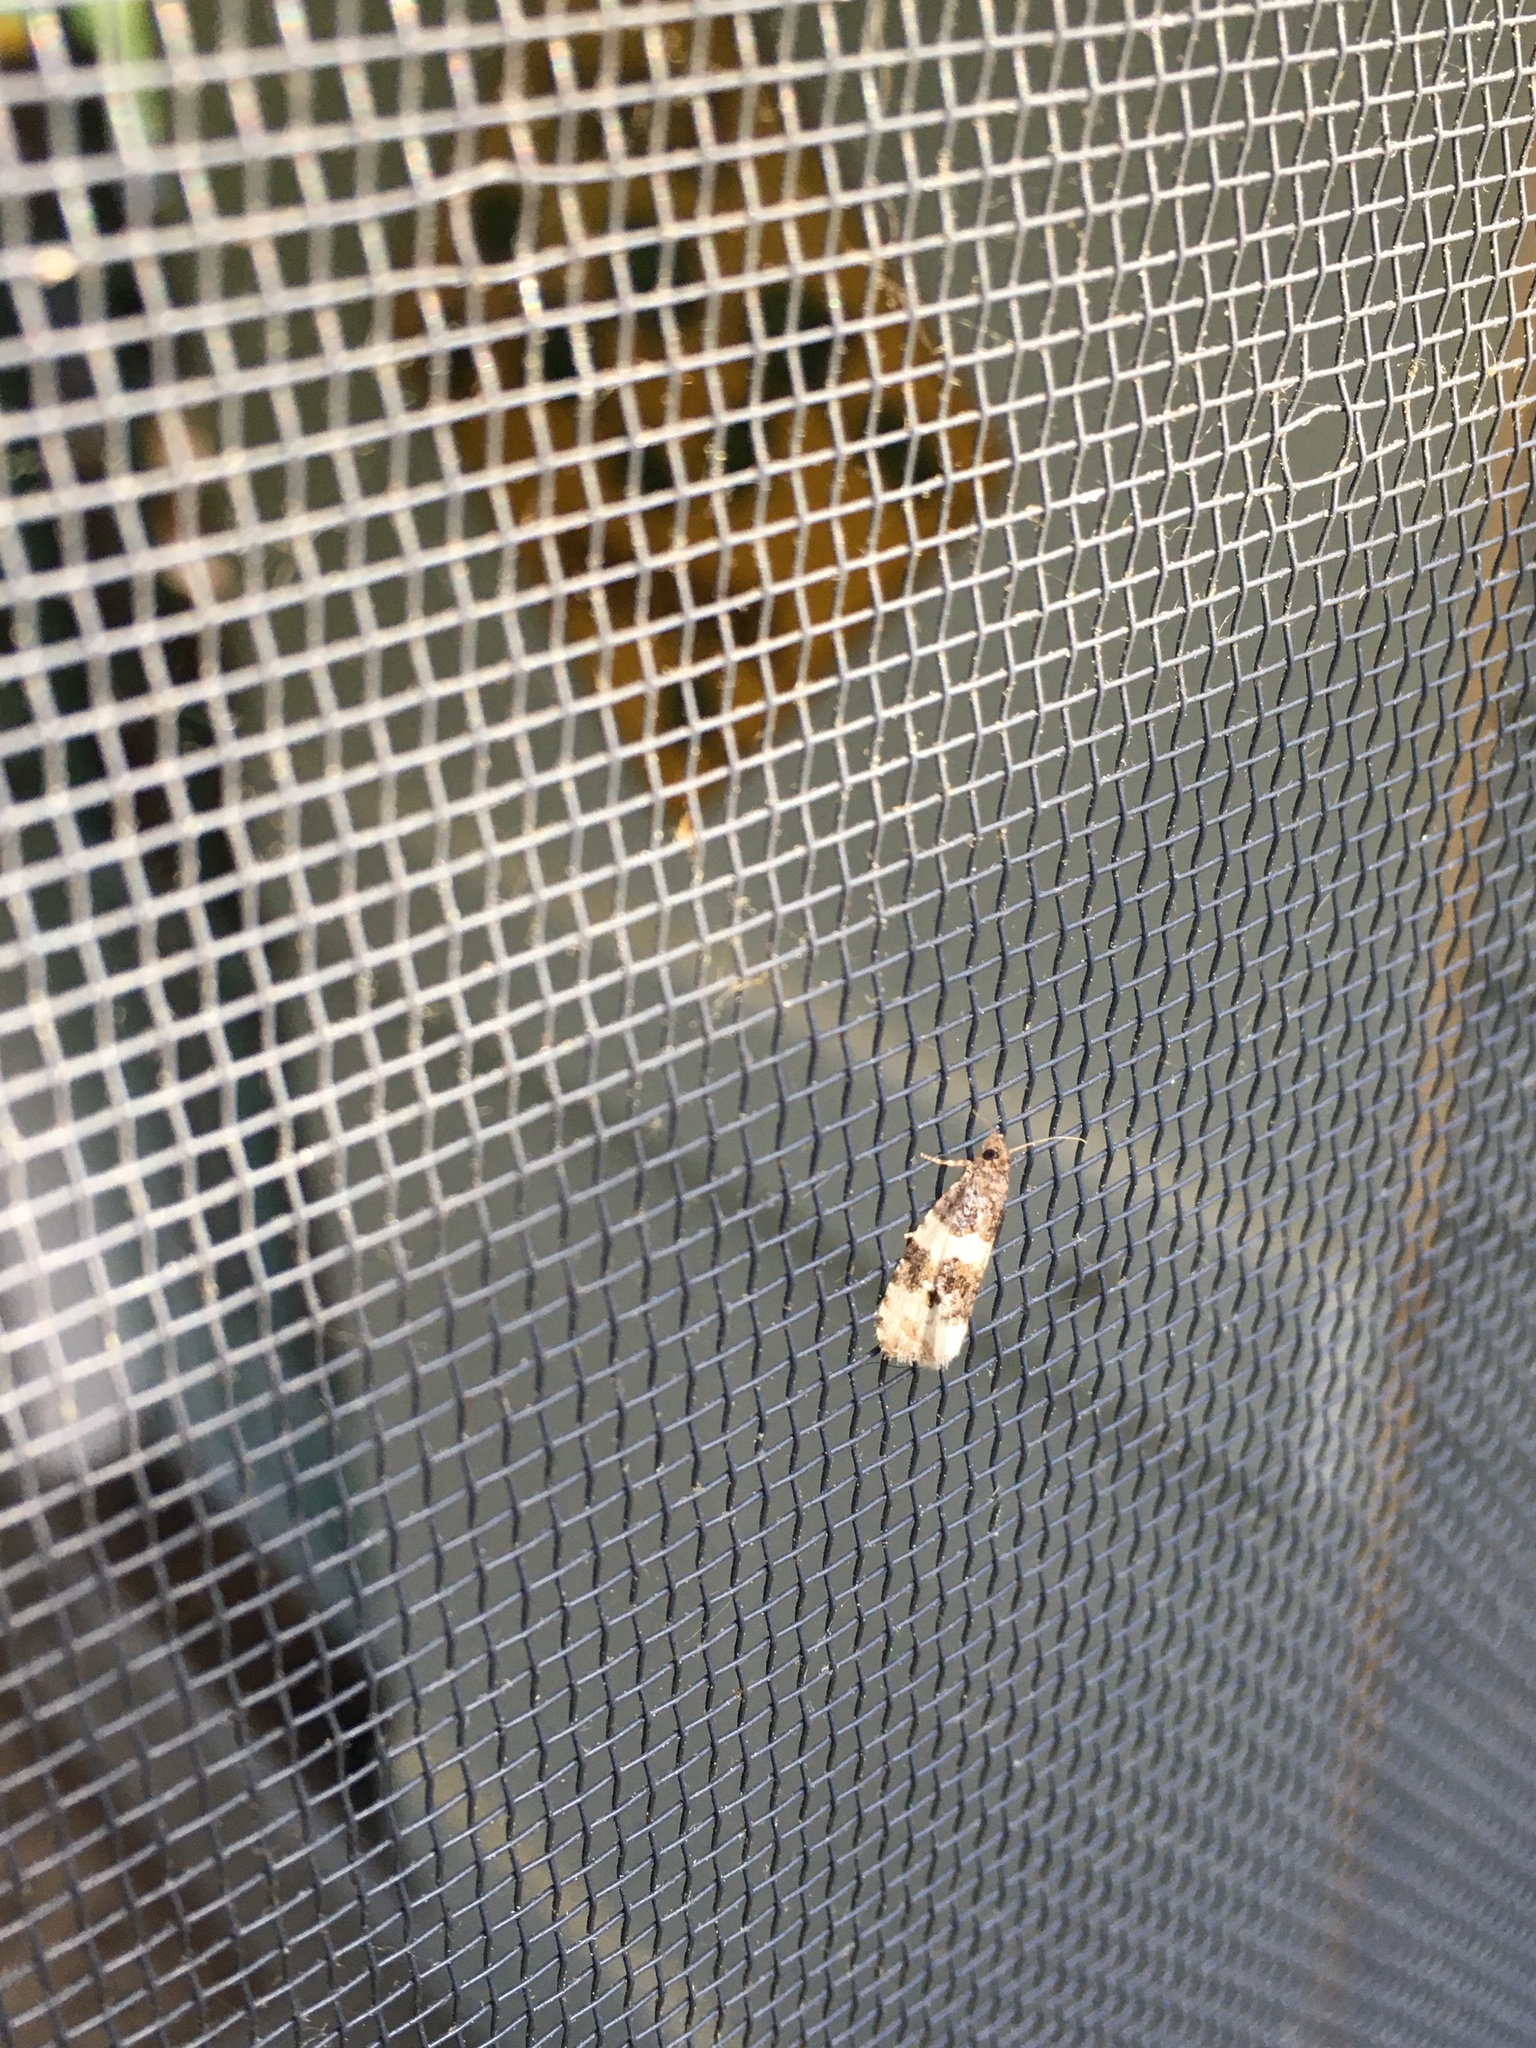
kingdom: Animalia
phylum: Arthropoda
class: Insecta
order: Lepidoptera
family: Tortricidae
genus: Olethreutes
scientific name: Olethreutes bipartitana
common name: Divided olethreutes moth
